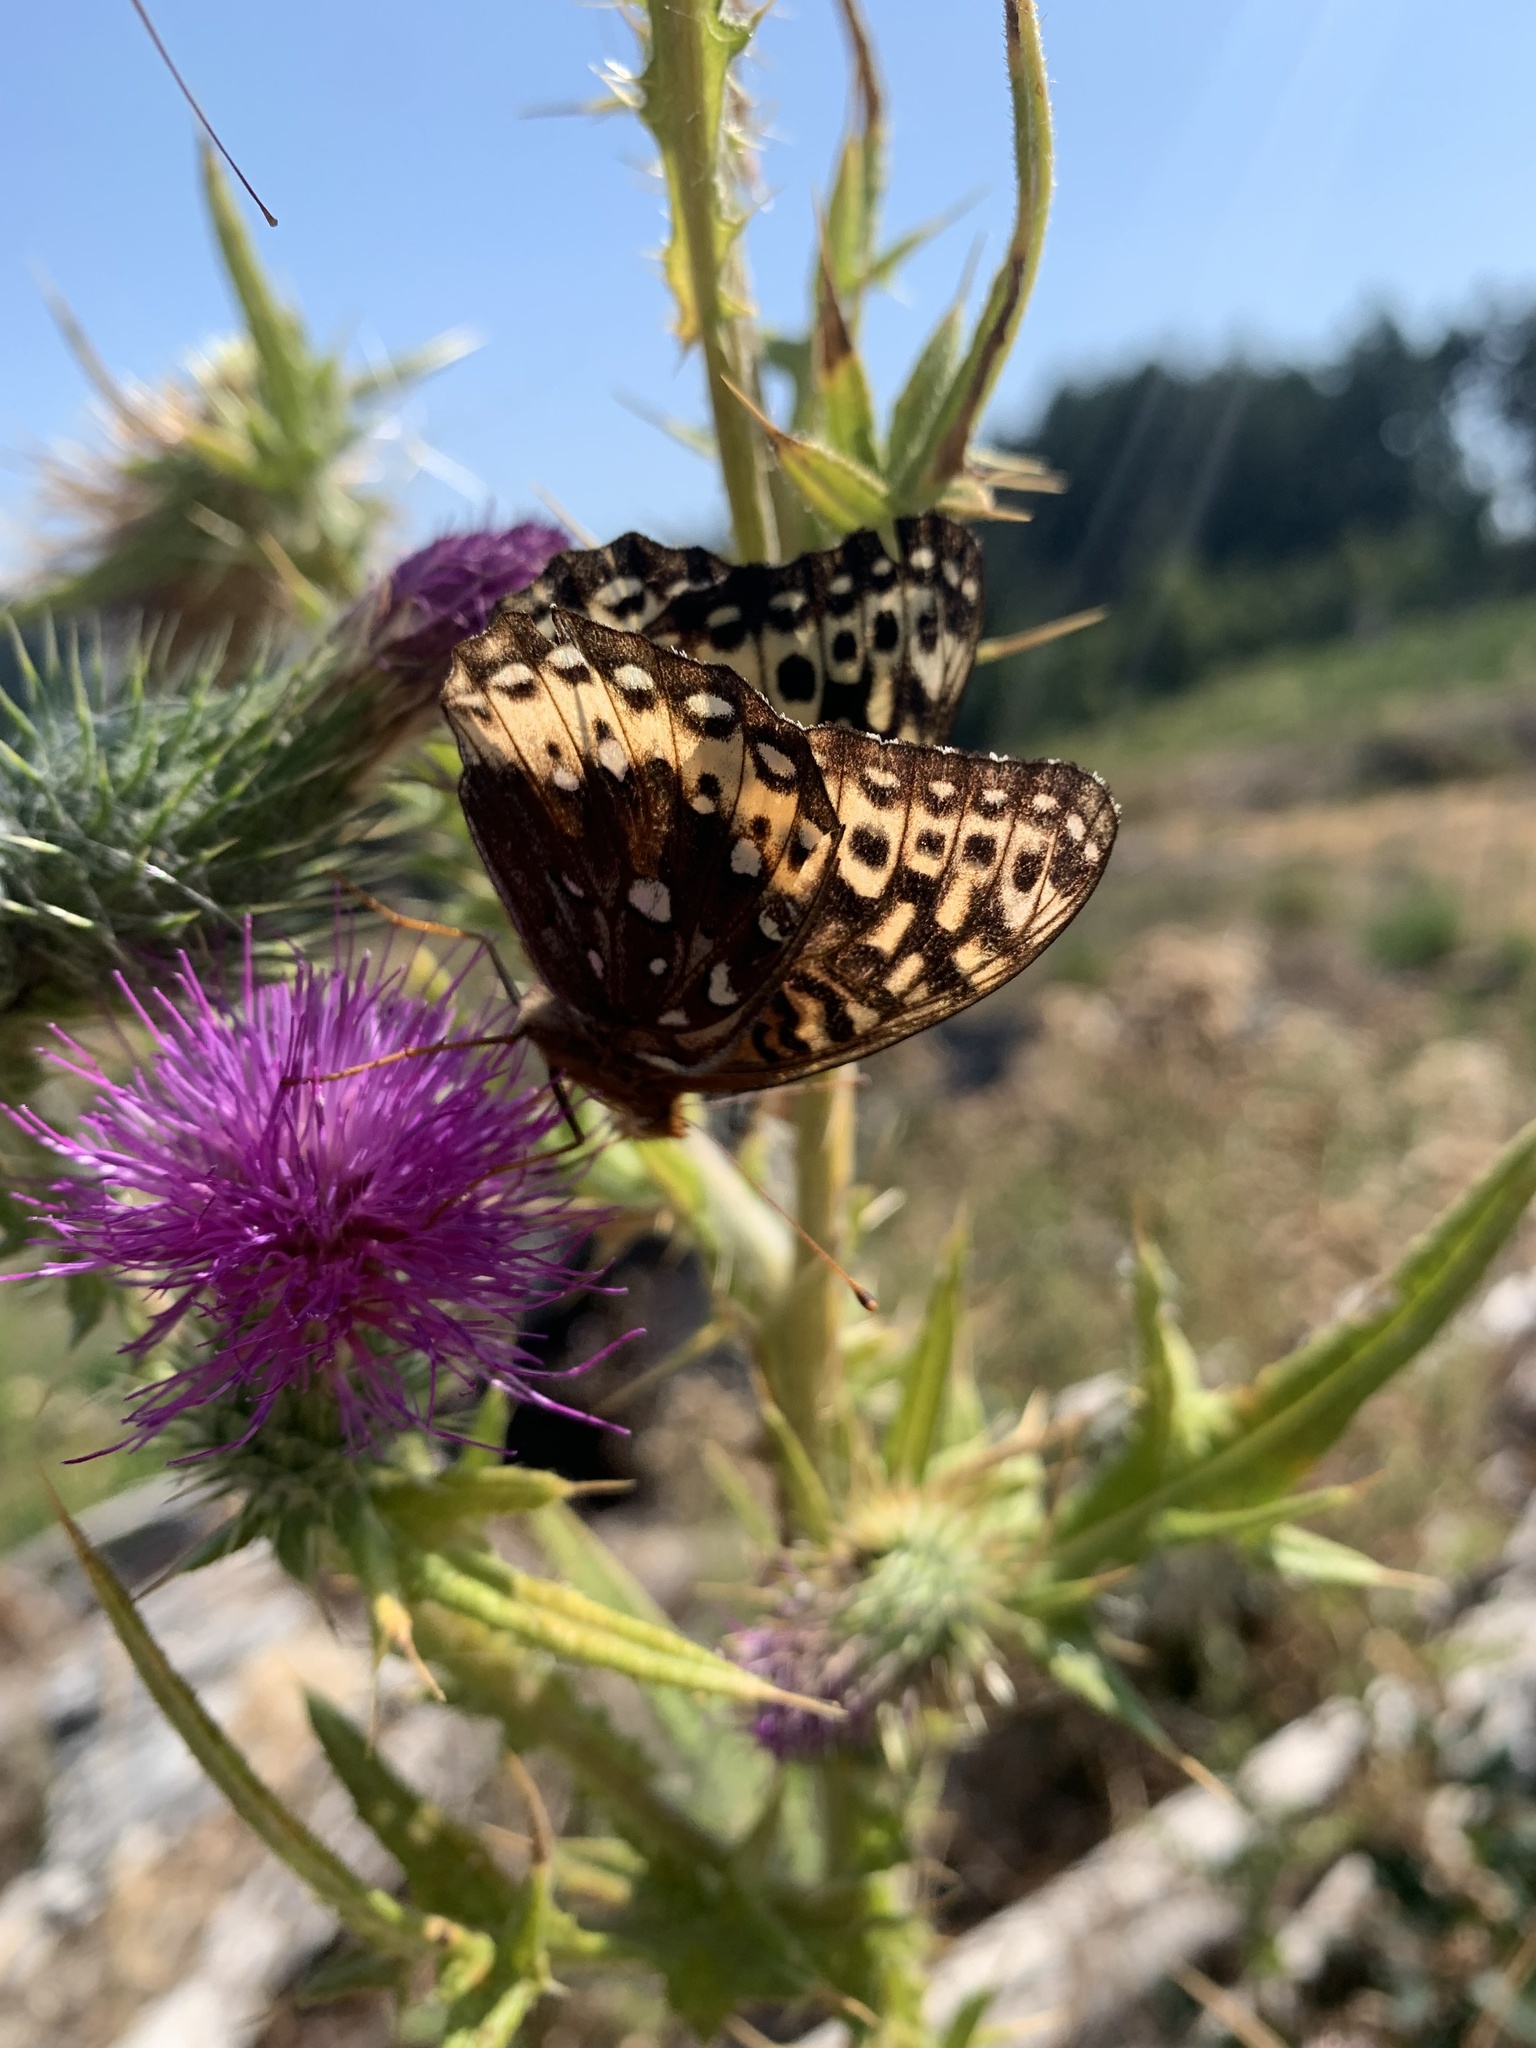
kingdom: Animalia
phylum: Arthropoda
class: Insecta
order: Lepidoptera
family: Nymphalidae
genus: Speyeria
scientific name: Speyeria cybele
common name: Great spangled fritillary
